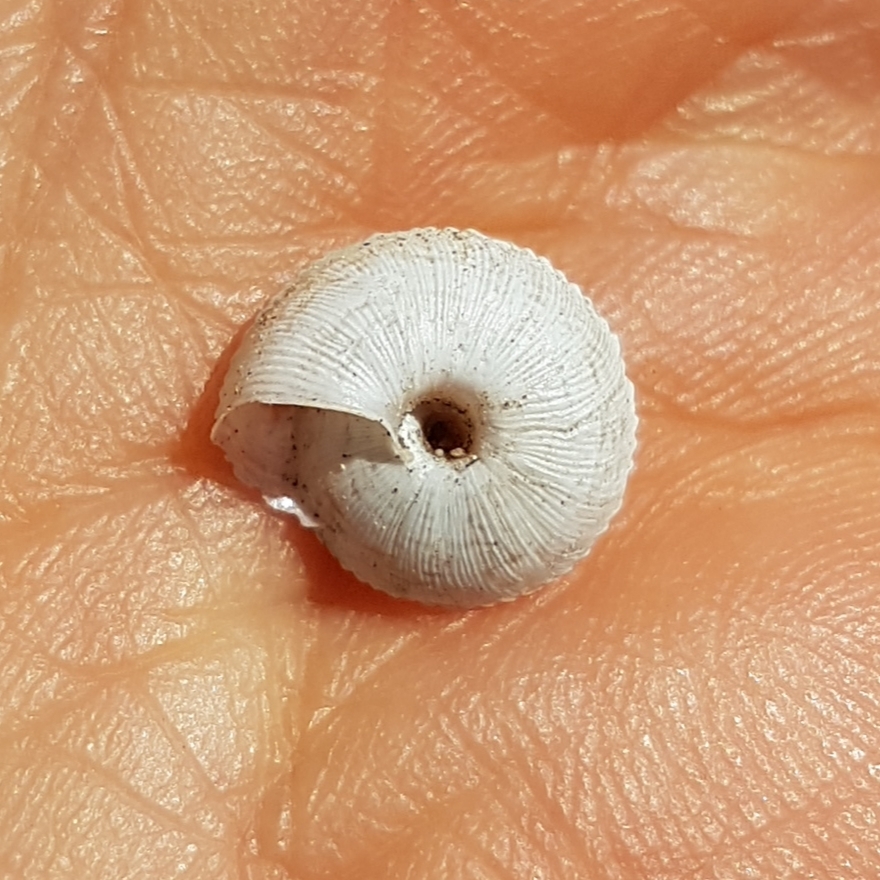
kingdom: Animalia
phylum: Mollusca
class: Gastropoda
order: Stylommatophora
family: Geomitridae
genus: Xerocrassa
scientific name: Xerocrassa nyeli
